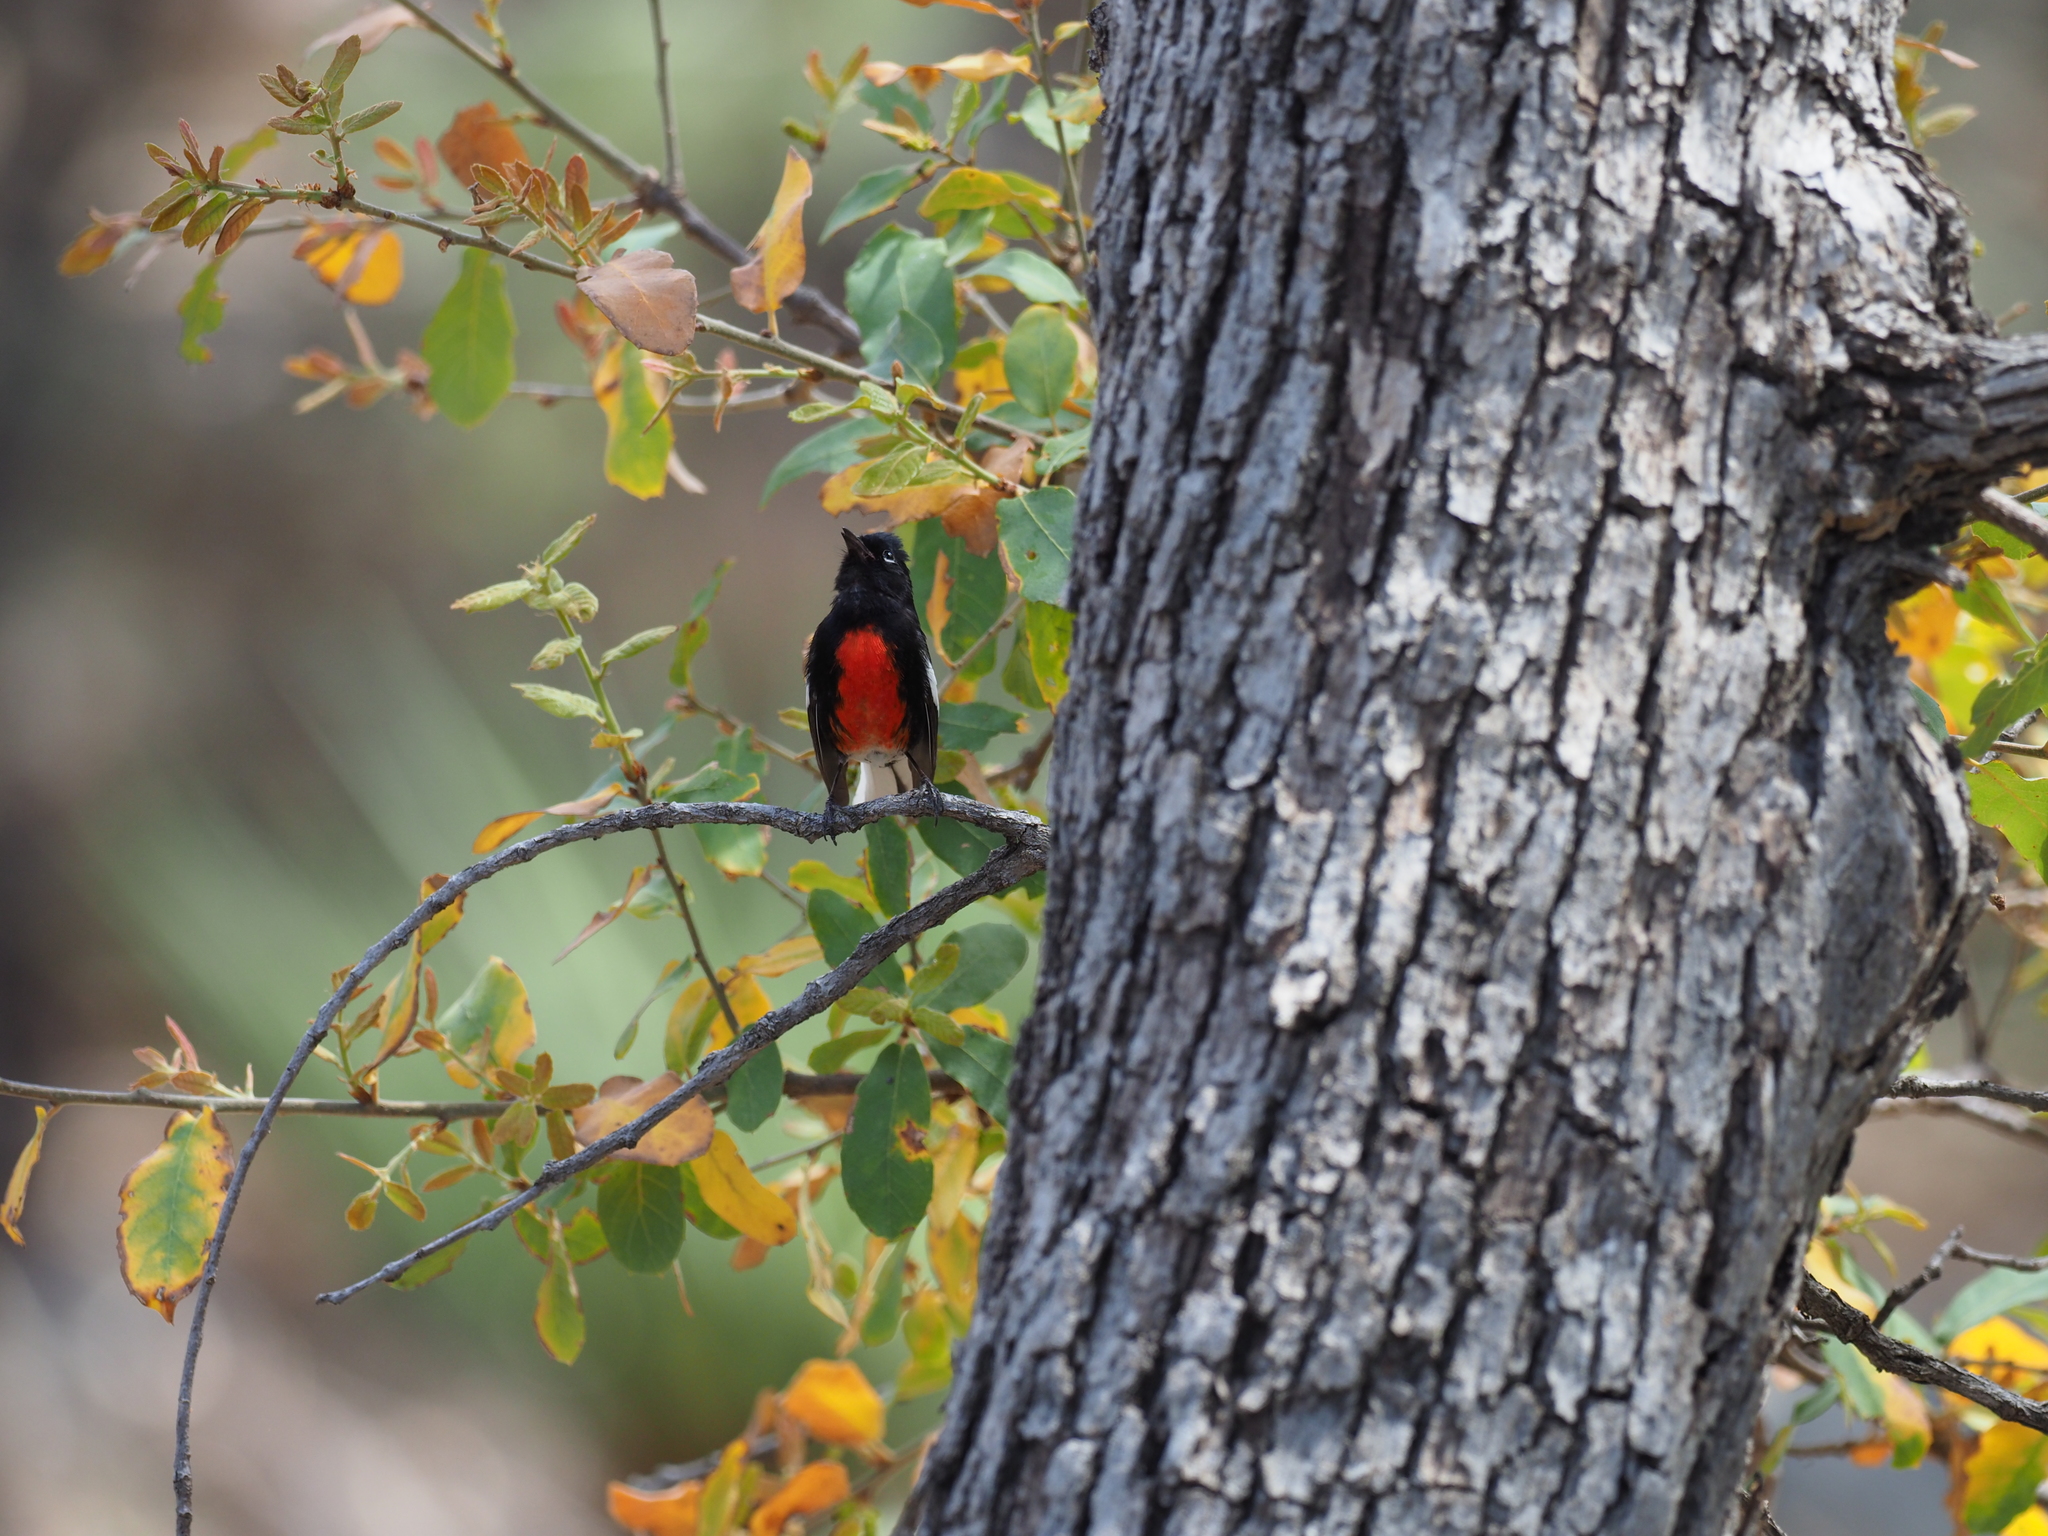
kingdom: Animalia
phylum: Chordata
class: Aves
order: Passeriformes
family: Parulidae
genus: Myioborus
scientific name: Myioborus pictus
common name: Painted whitestart
